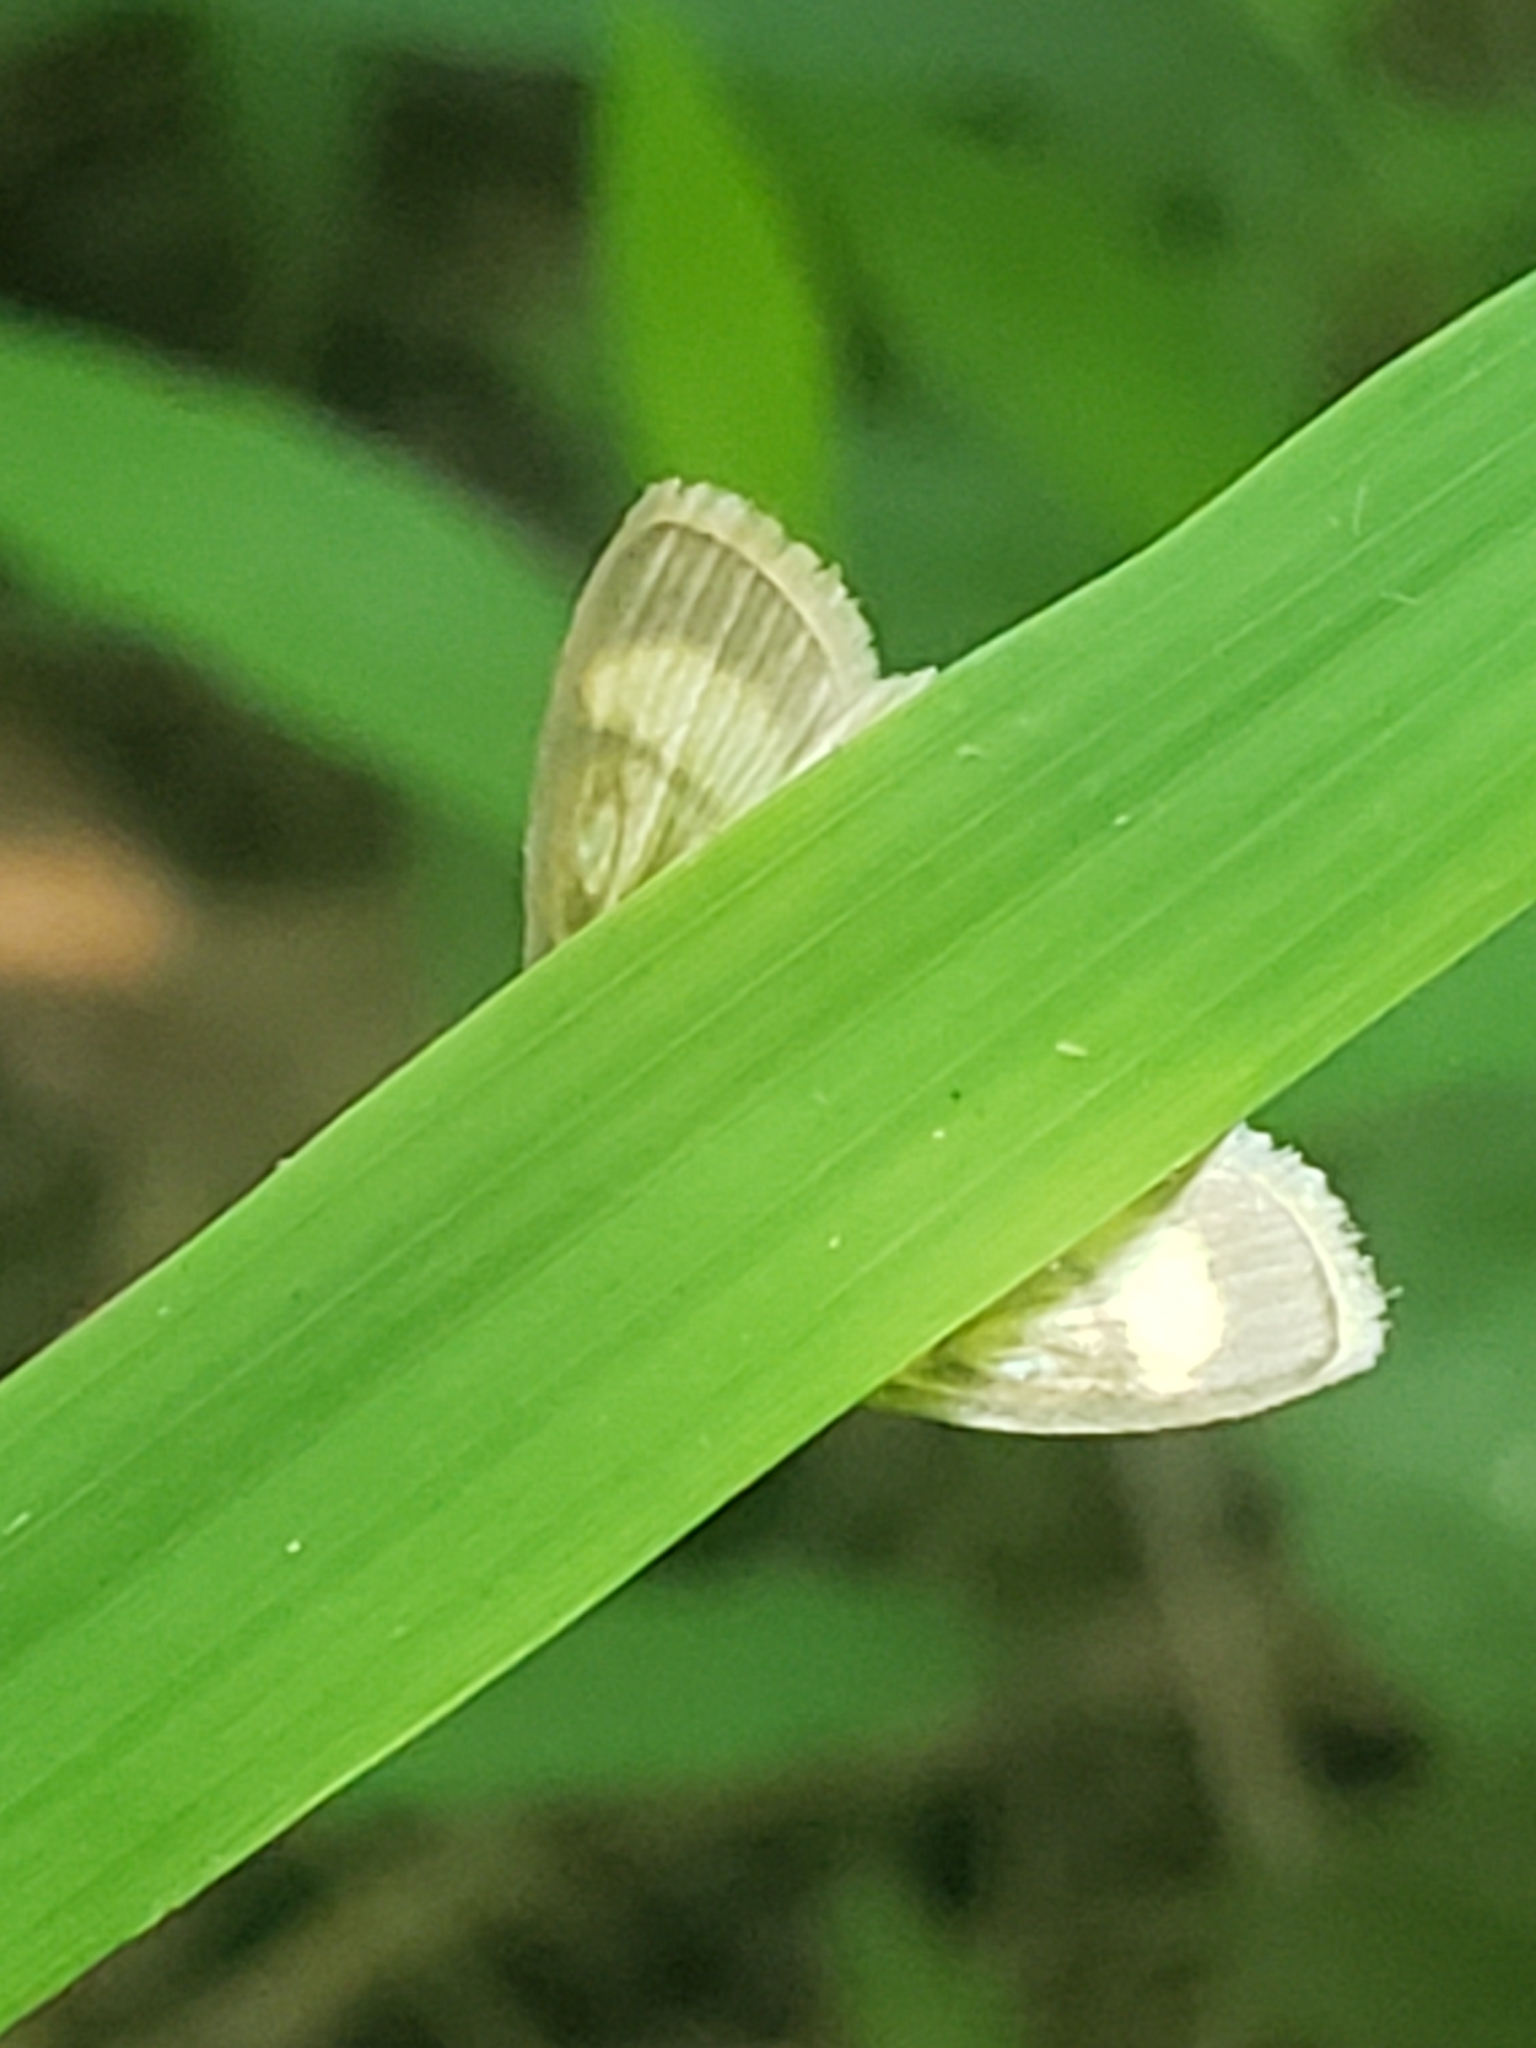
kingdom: Animalia
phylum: Arthropoda
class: Insecta
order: Lepidoptera
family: Crambidae
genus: Crocidophora
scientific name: Crocidophora tuberculalis
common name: Pale-winged crocidiphora moth
